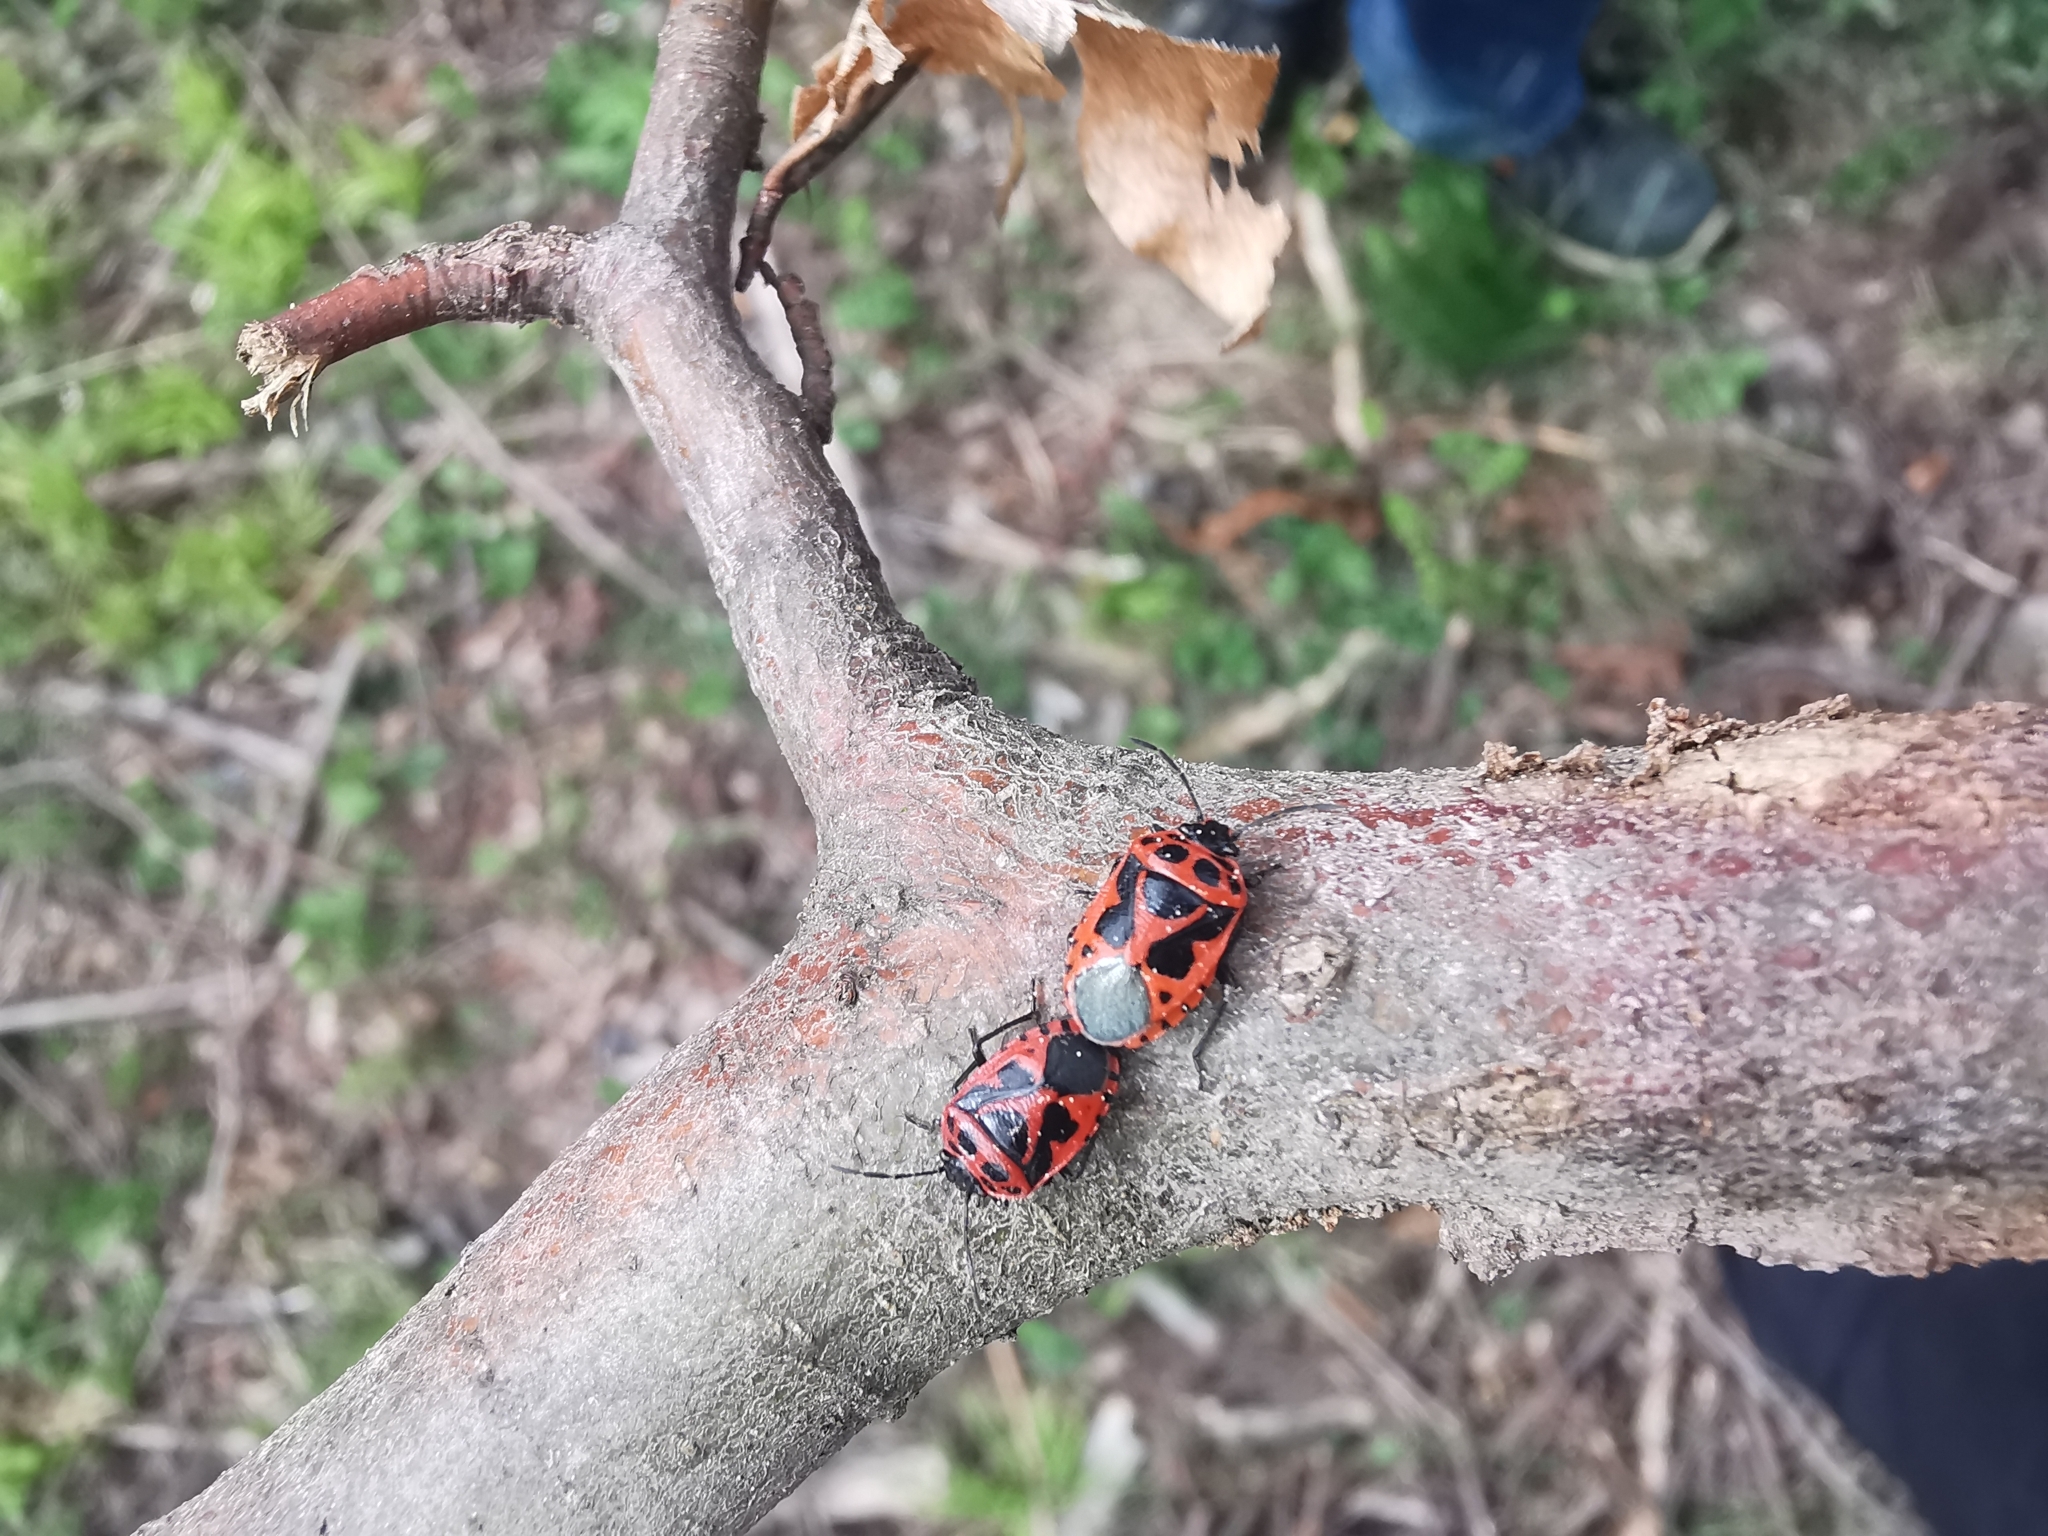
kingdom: Animalia
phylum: Arthropoda
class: Insecta
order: Hemiptera
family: Pentatomidae
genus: Eurydema
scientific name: Eurydema dominulus
